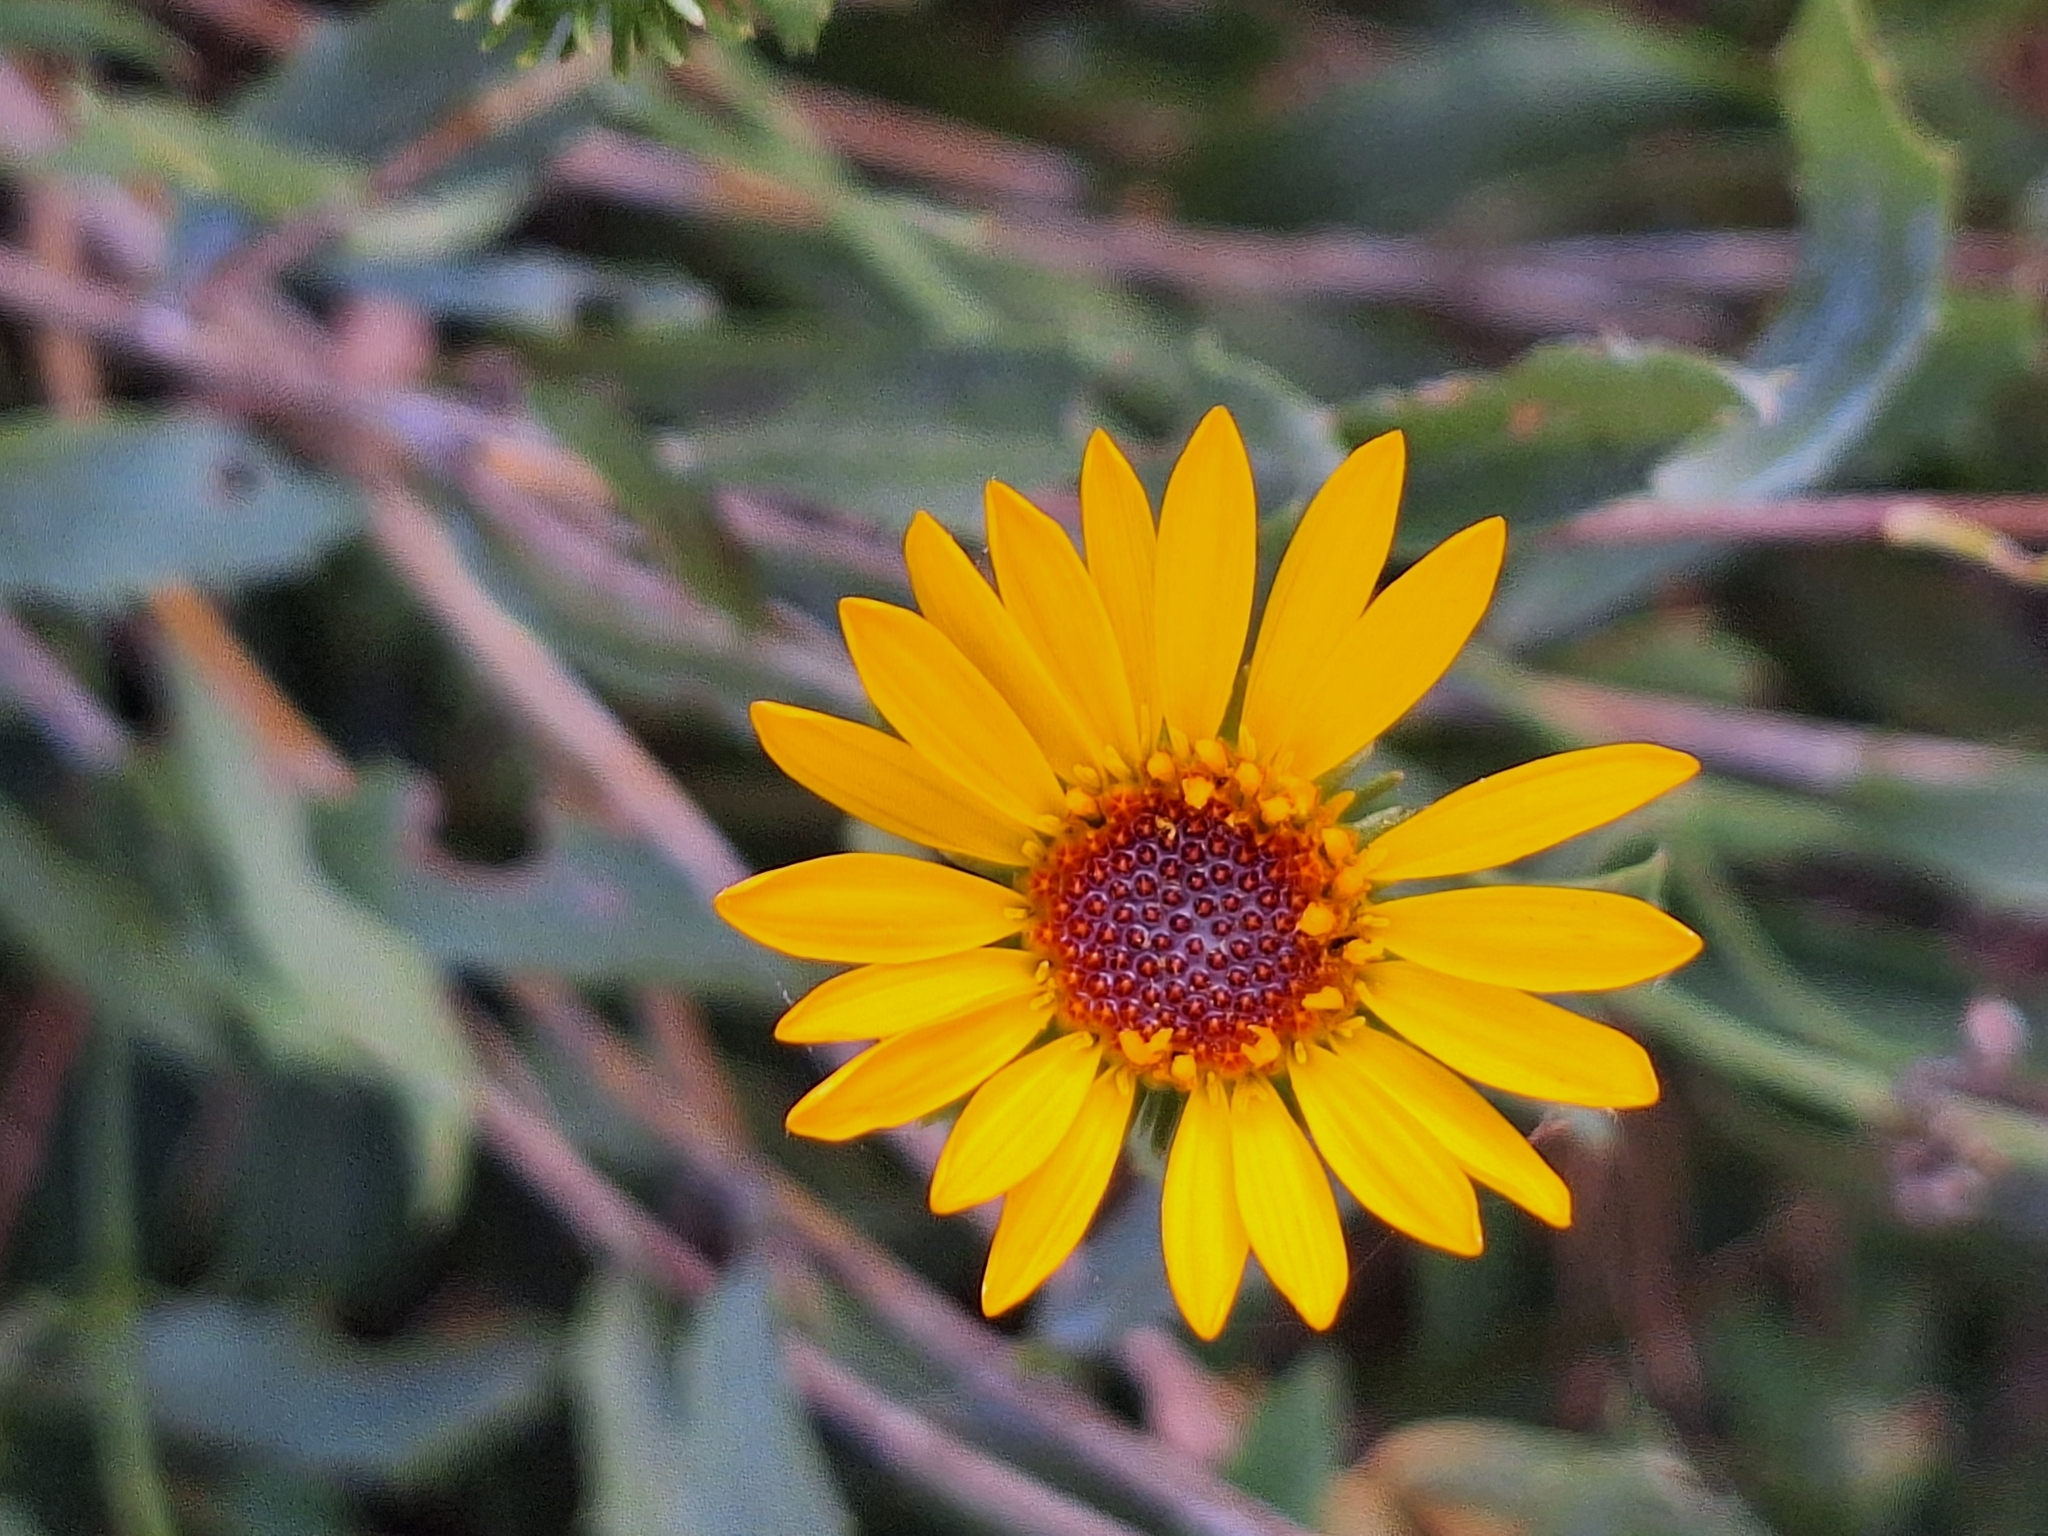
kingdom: Plantae
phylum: Tracheophyta
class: Magnoliopsida
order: Asterales
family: Asteraceae
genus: Grindelia
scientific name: Grindelia pulchella
